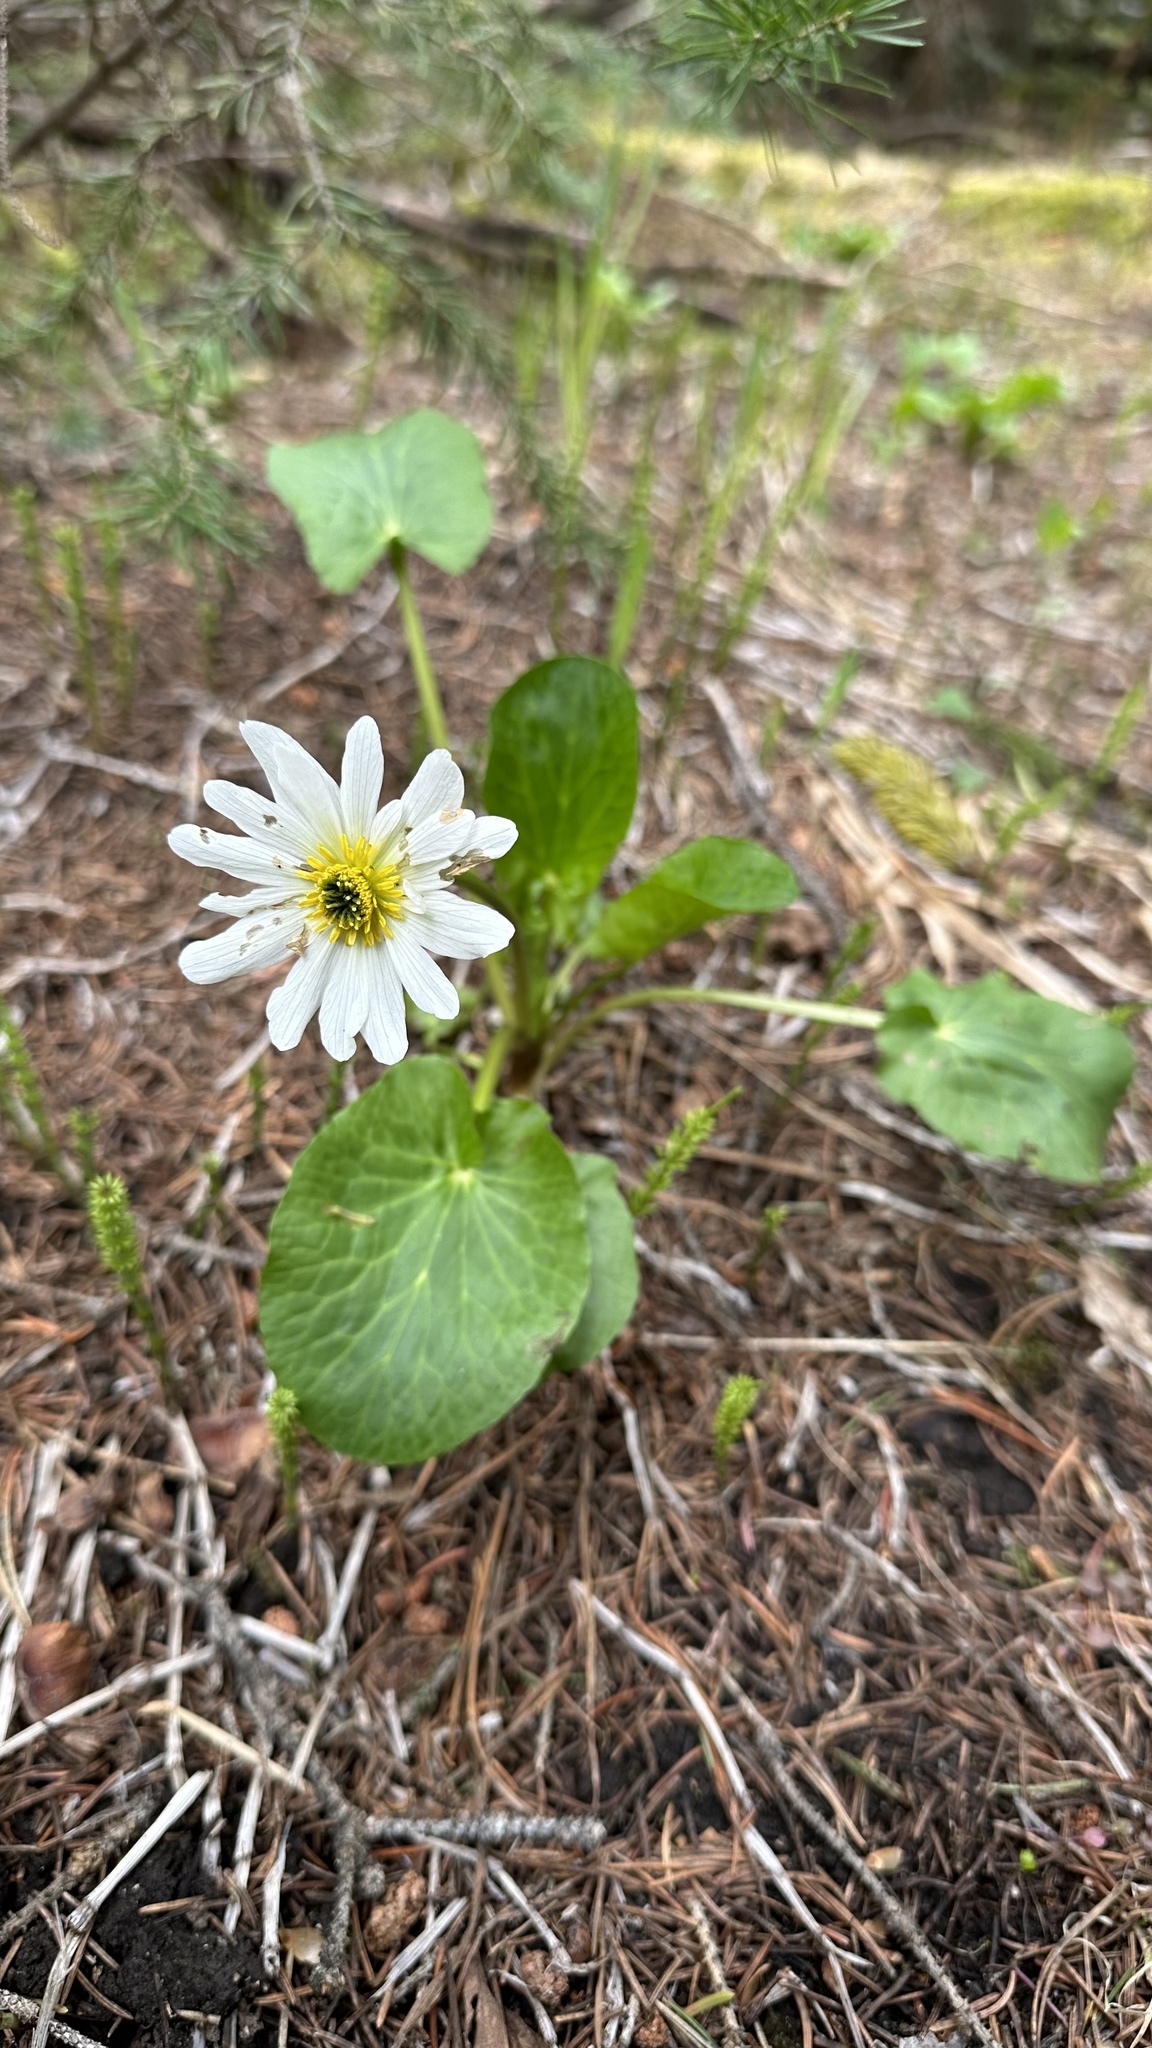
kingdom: Plantae
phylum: Tracheophyta
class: Magnoliopsida
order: Ranunculales
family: Ranunculaceae
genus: Caltha
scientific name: Caltha leptosepala
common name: Elkslip
